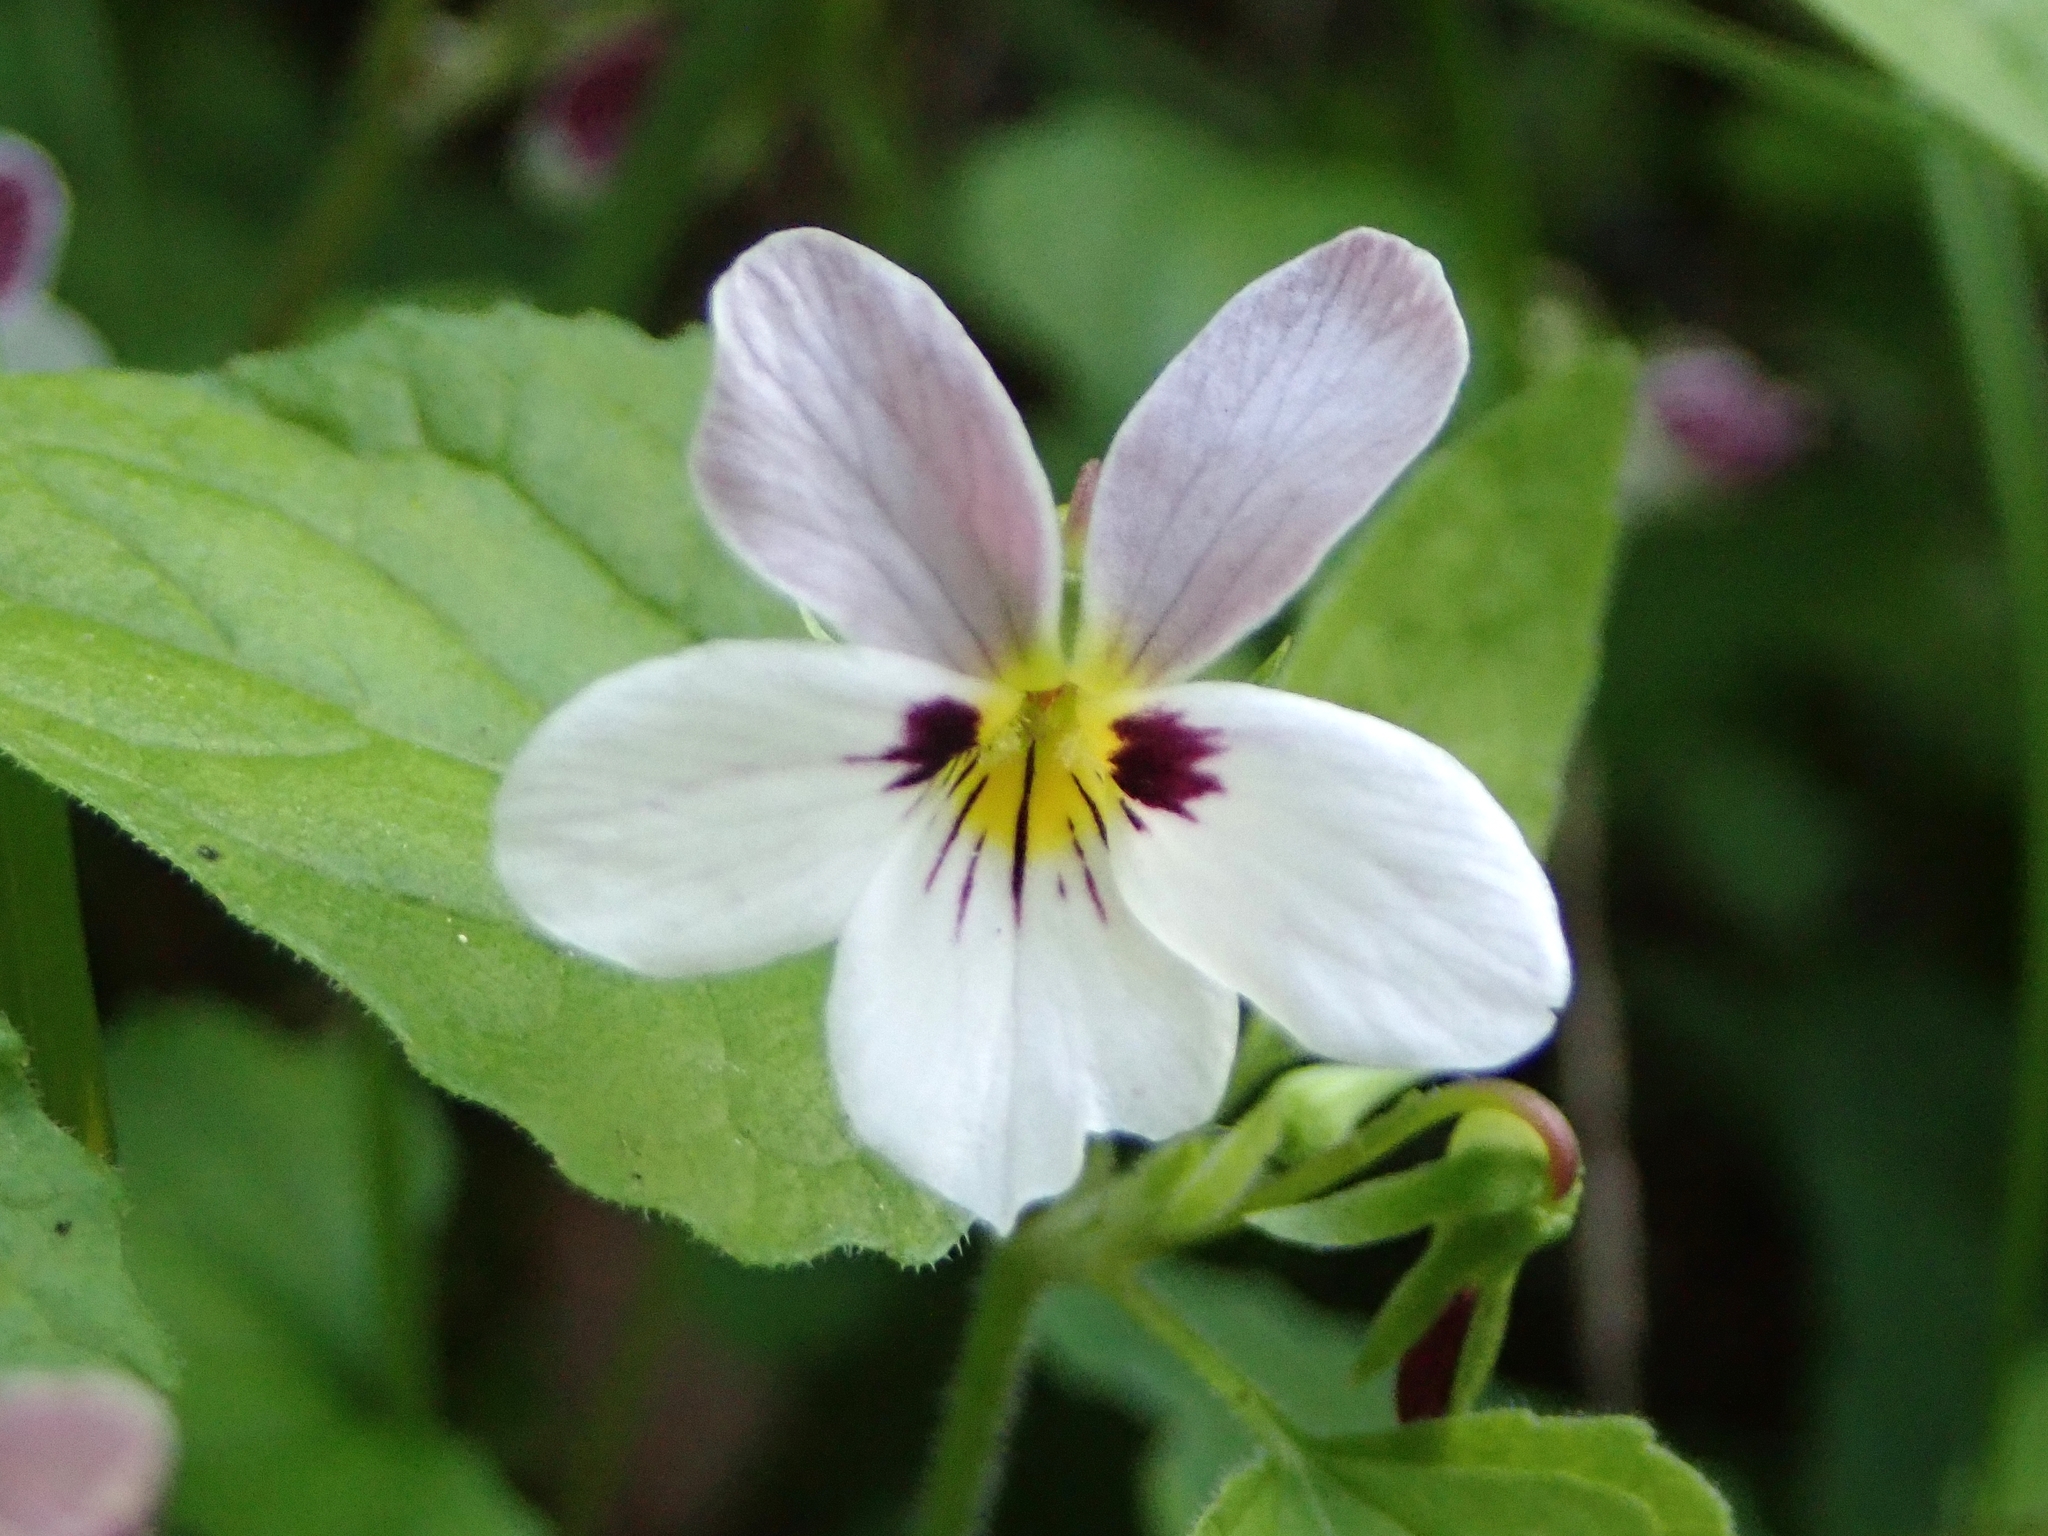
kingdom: Plantae
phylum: Tracheophyta
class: Magnoliopsida
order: Malpighiales
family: Violaceae
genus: Viola
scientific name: Viola ocellata
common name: Western heart's ease
